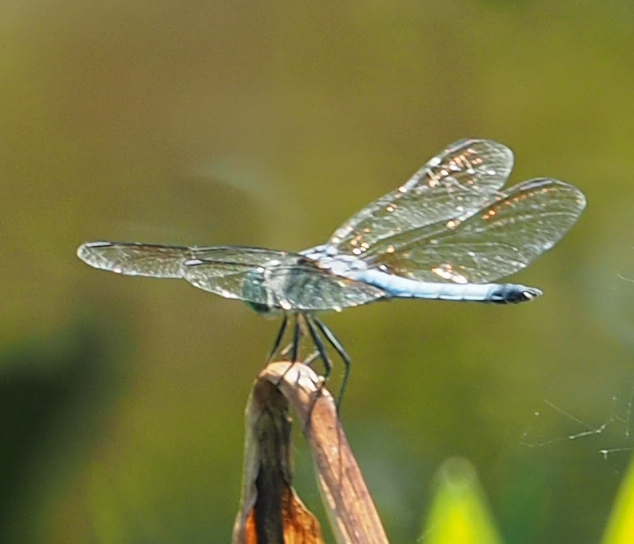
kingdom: Animalia
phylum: Arthropoda
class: Insecta
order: Odonata
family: Libellulidae
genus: Pachydiplax
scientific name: Pachydiplax longipennis
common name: Blue dasher
